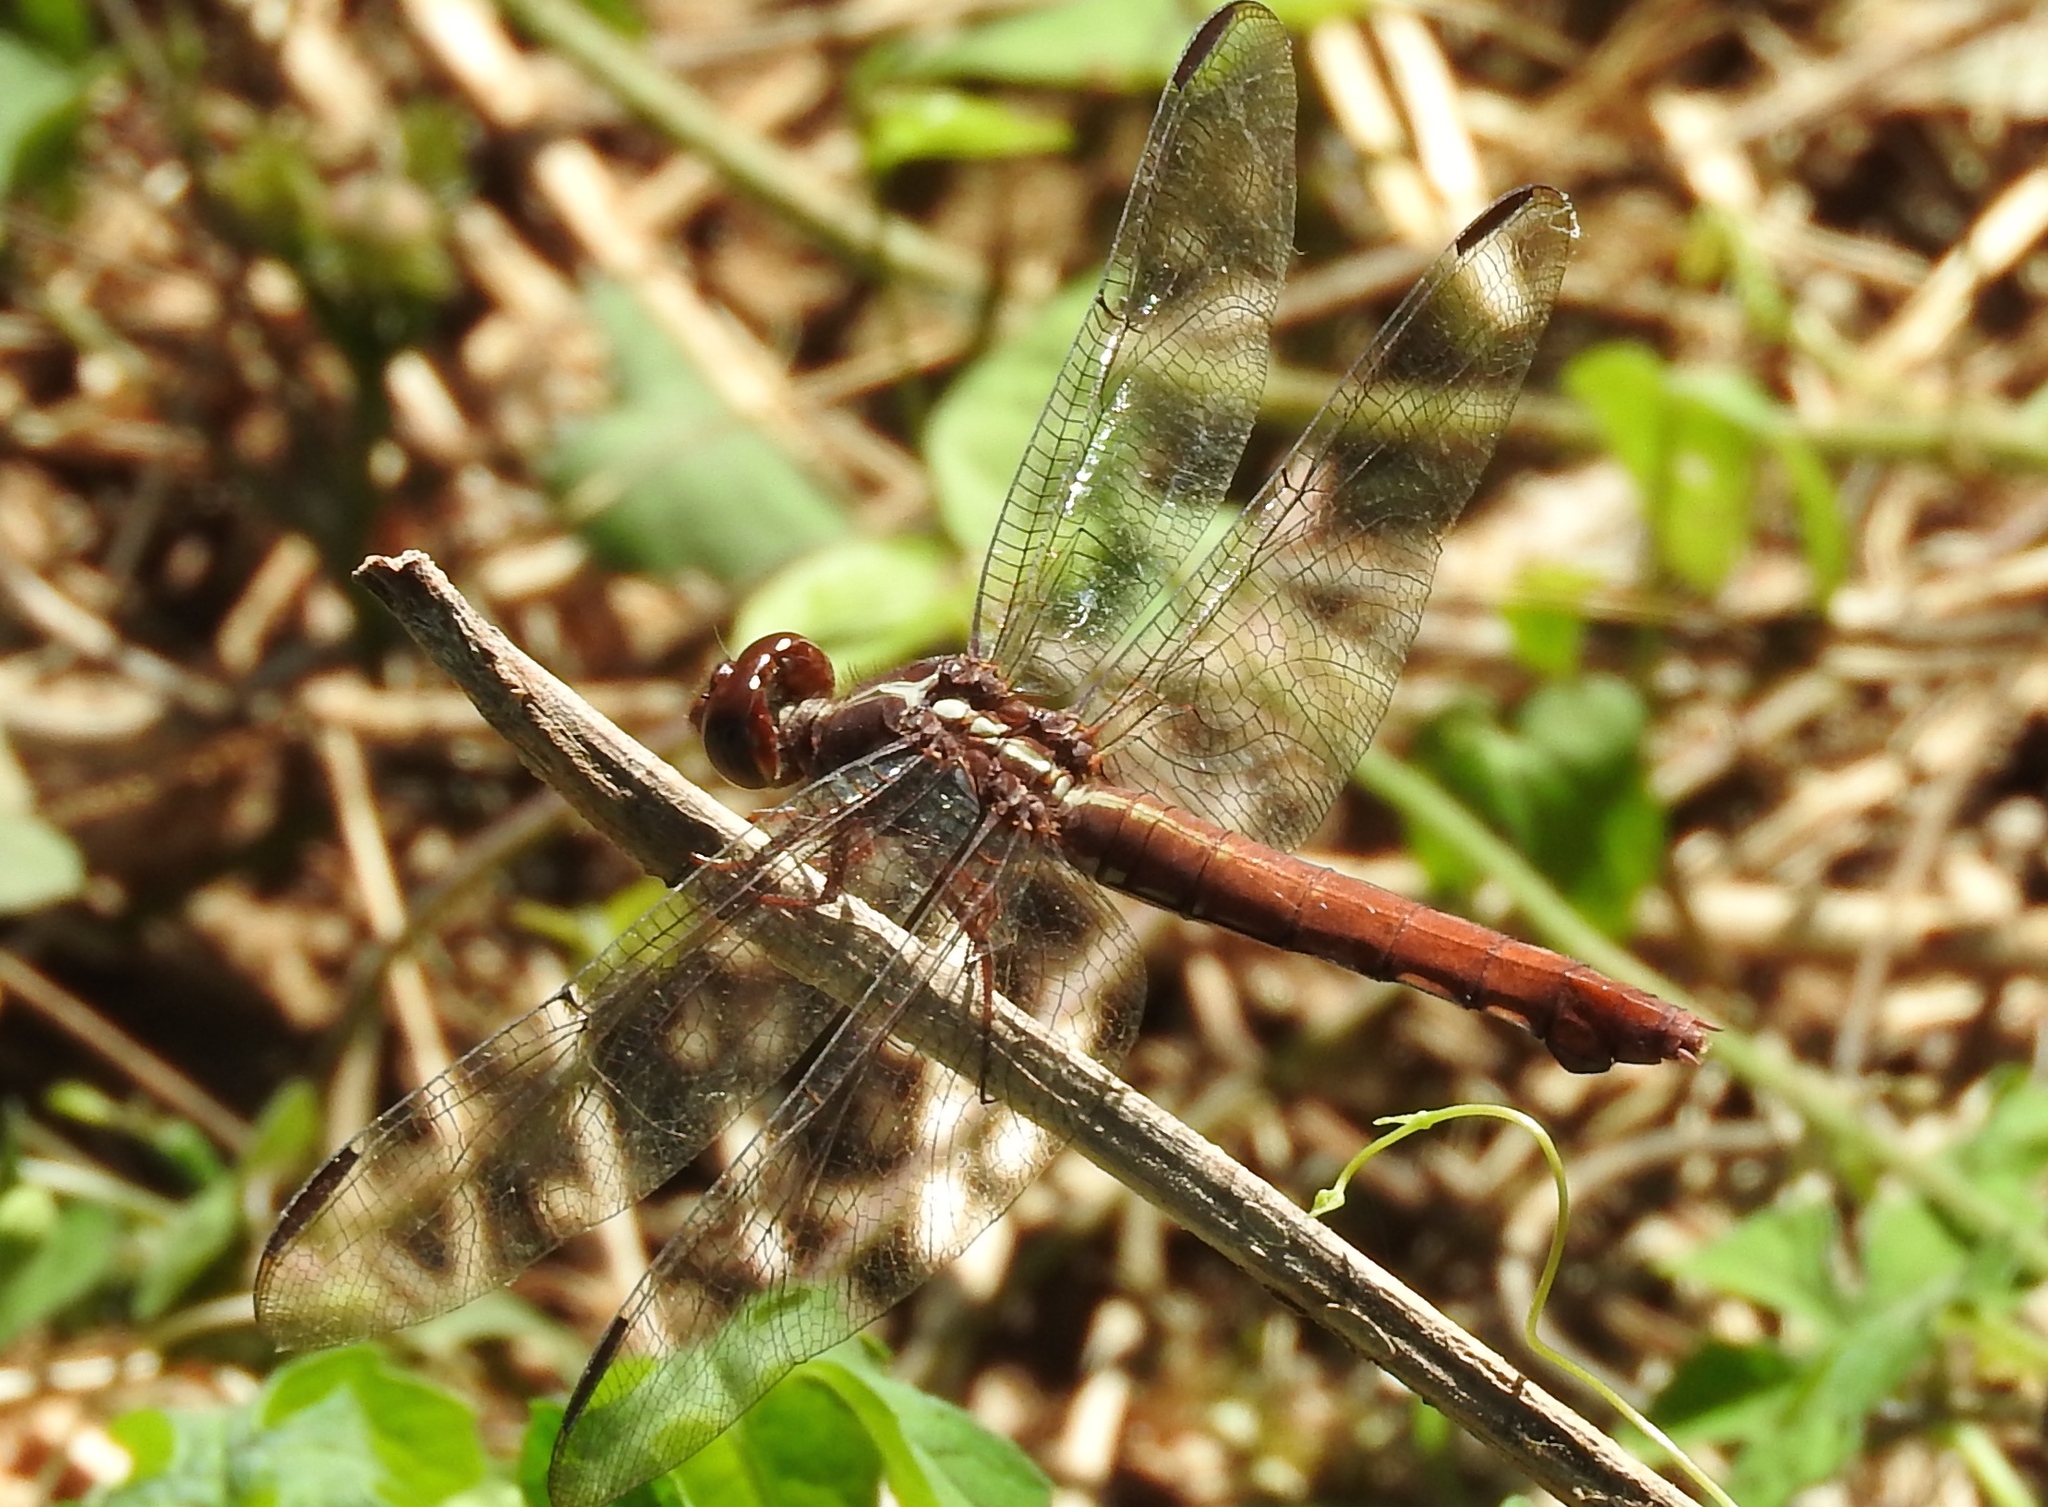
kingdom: Animalia
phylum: Arthropoda
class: Insecta
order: Odonata
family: Libellulidae
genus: Orthemis
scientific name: Orthemis
